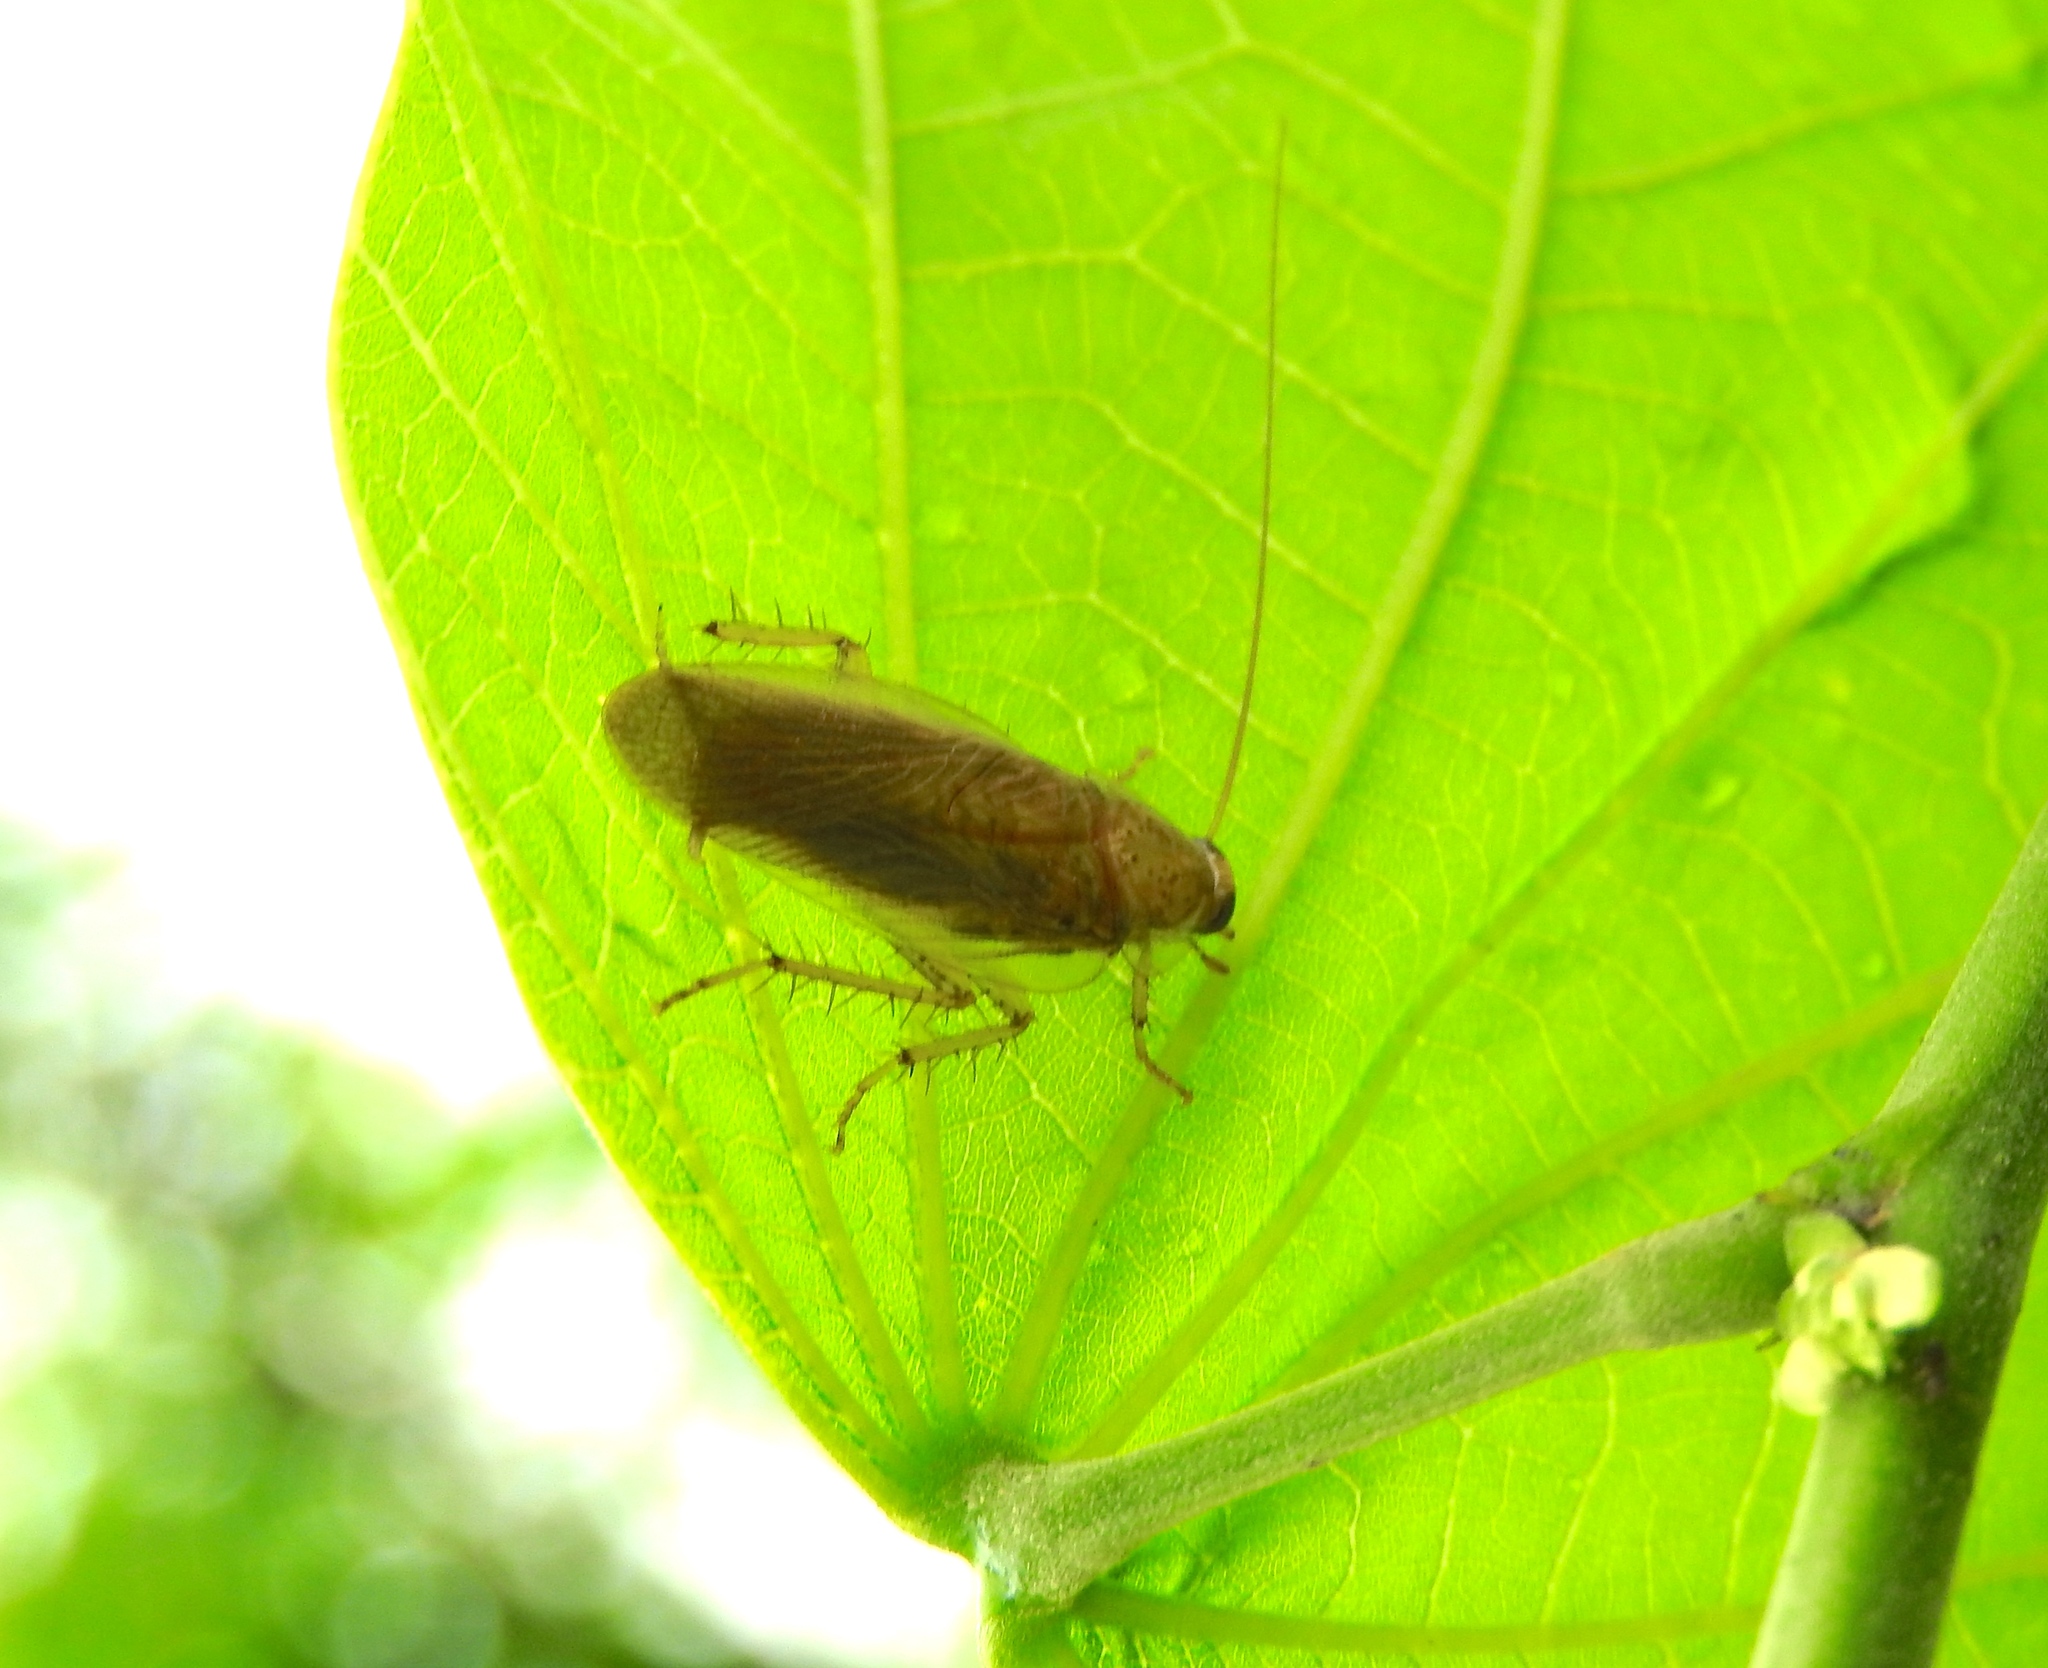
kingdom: Animalia
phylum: Arthropoda
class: Insecta
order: Blattodea
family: Ectobiidae
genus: Imblattella
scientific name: Imblattella sinaloae
